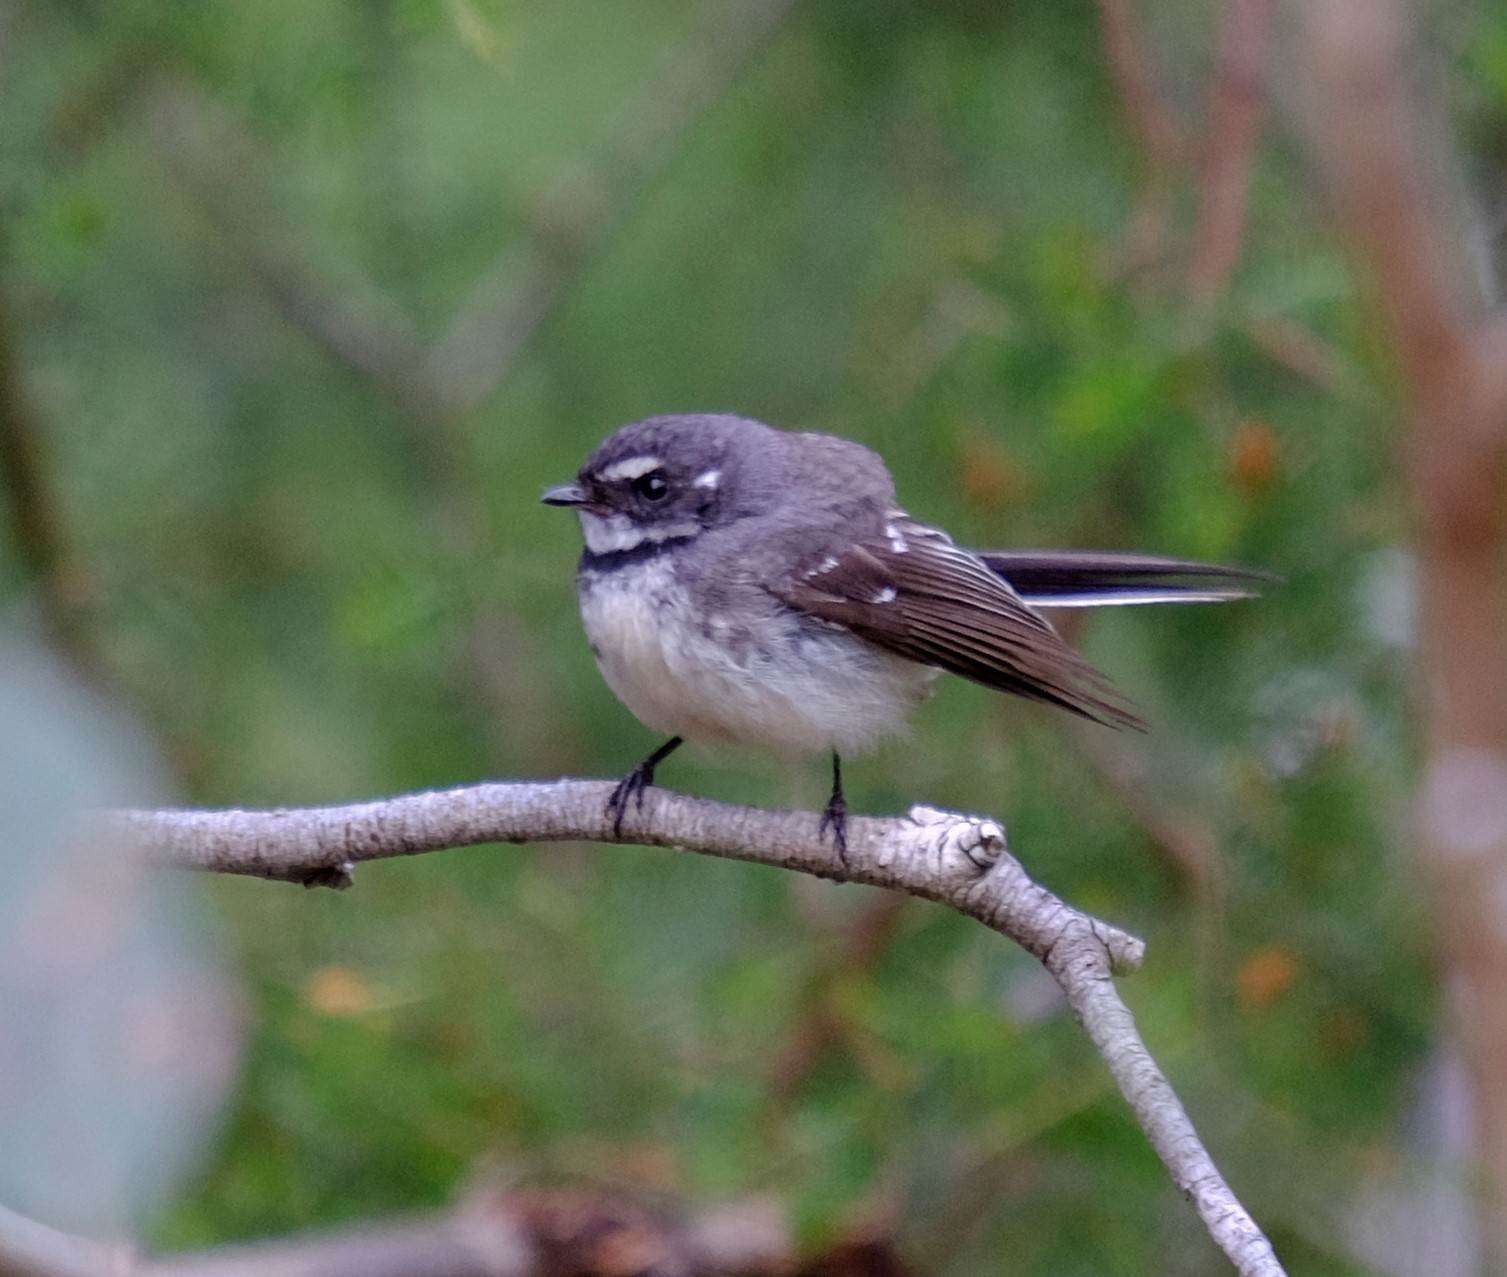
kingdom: Animalia
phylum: Chordata
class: Aves
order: Passeriformes
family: Rhipiduridae
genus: Rhipidura
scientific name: Rhipidura albiscapa
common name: Grey fantail
